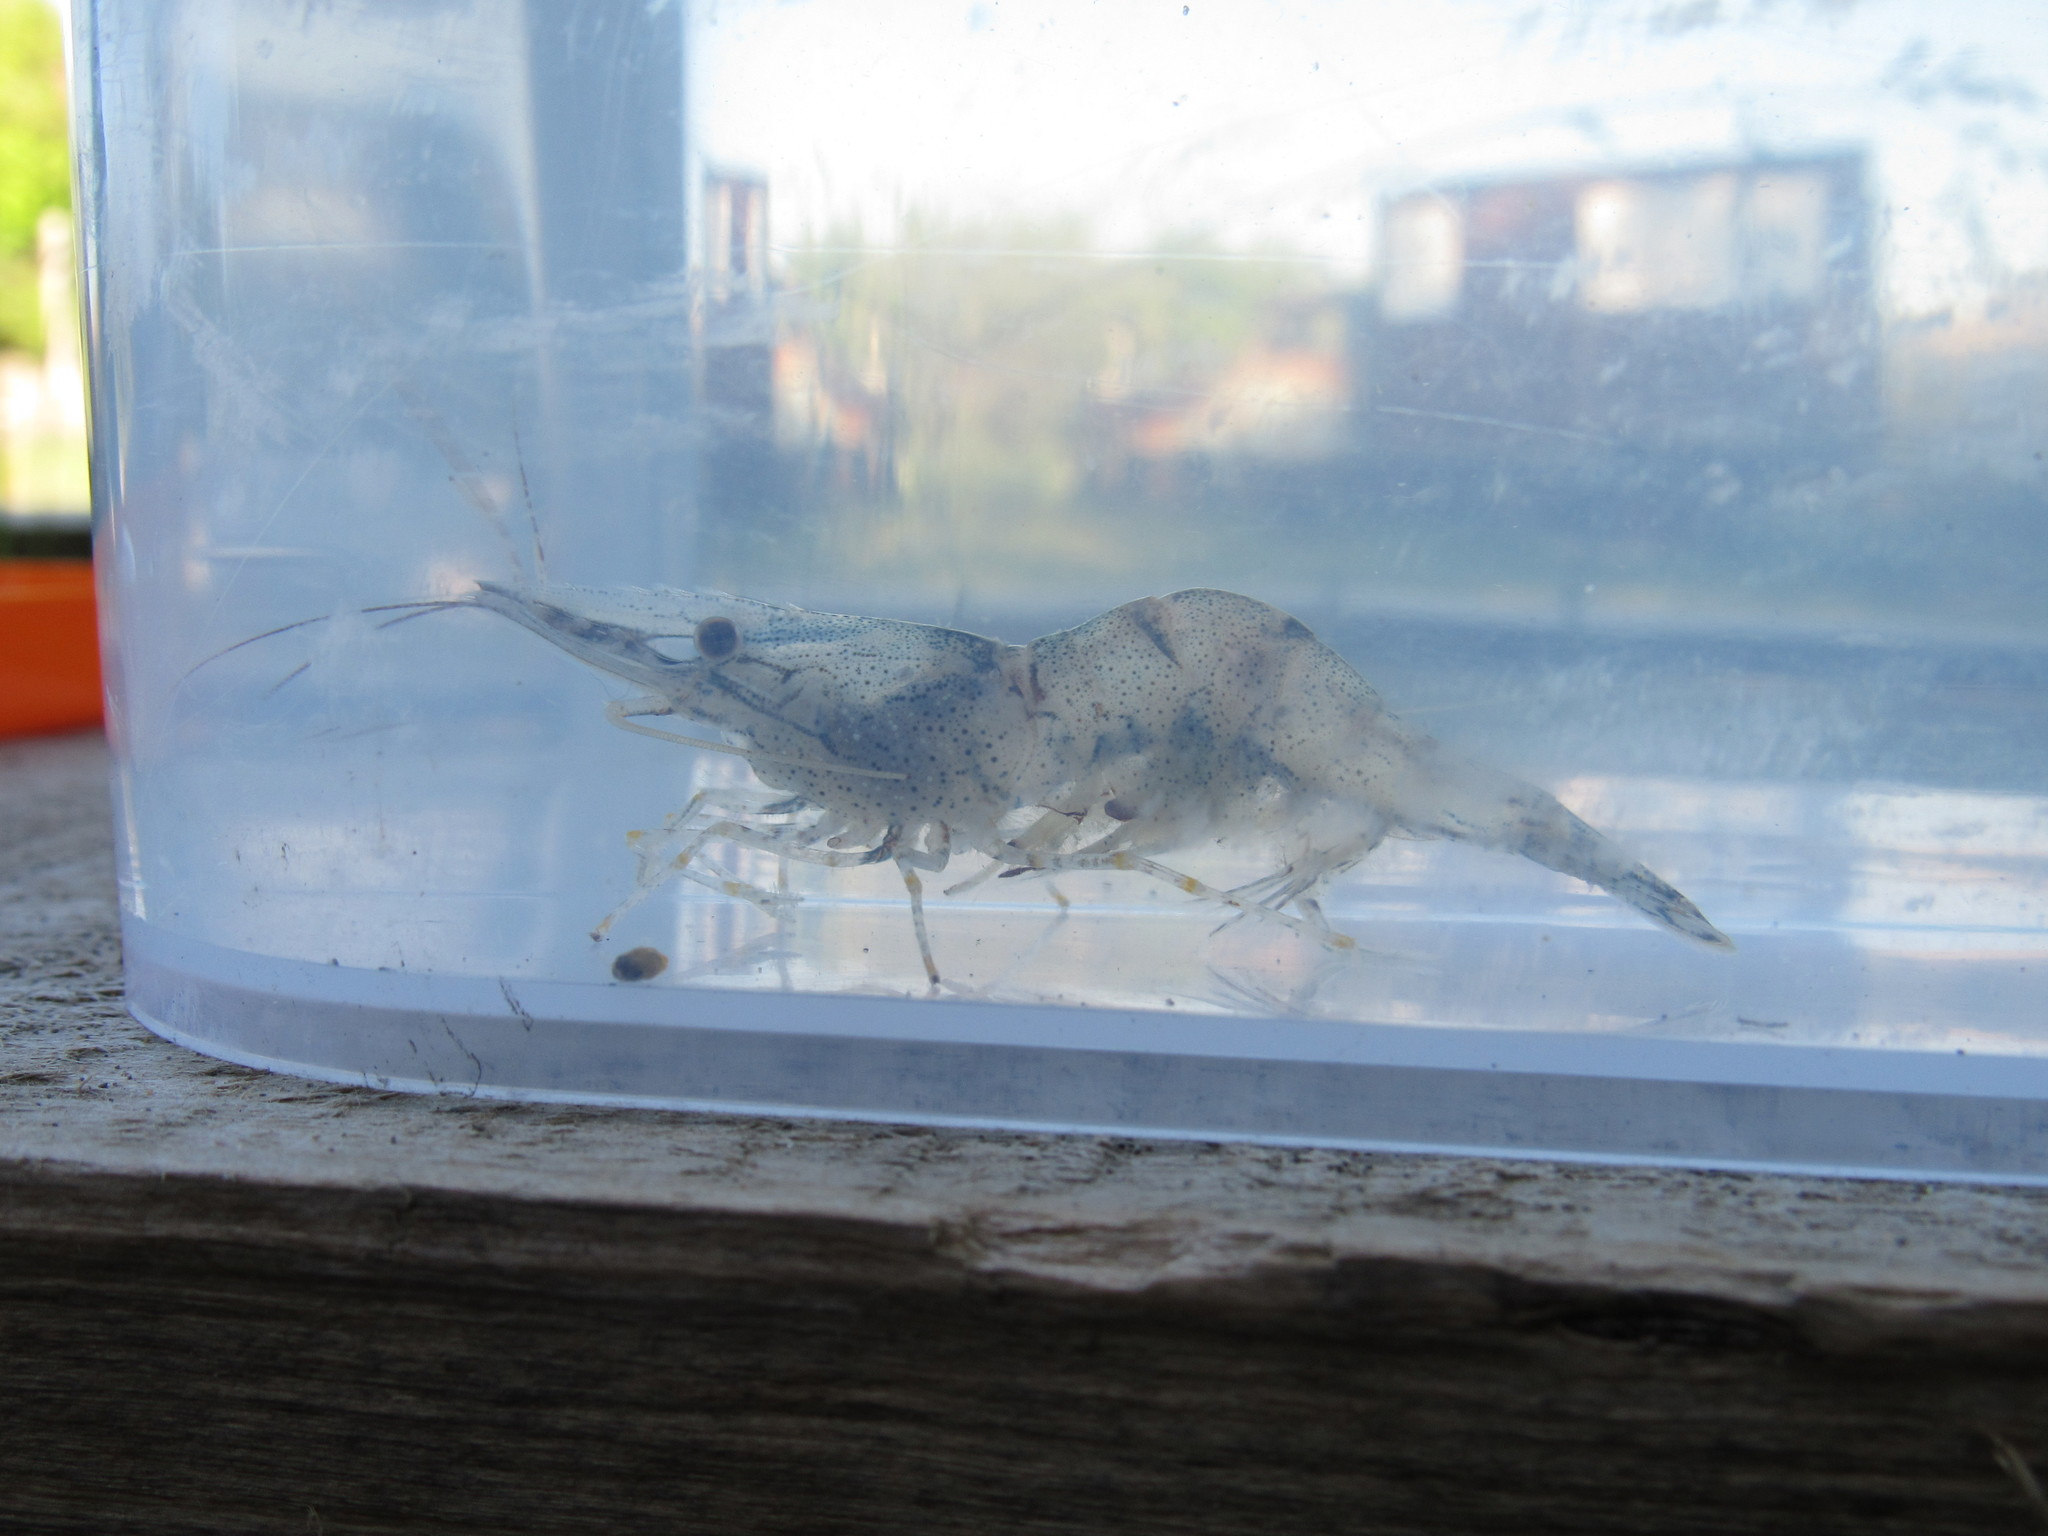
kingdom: Animalia
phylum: Arthropoda
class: Malacostraca
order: Decapoda
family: Palaemonidae
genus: Palaemon
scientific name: Palaemon adspersus
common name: Baltic prawn
